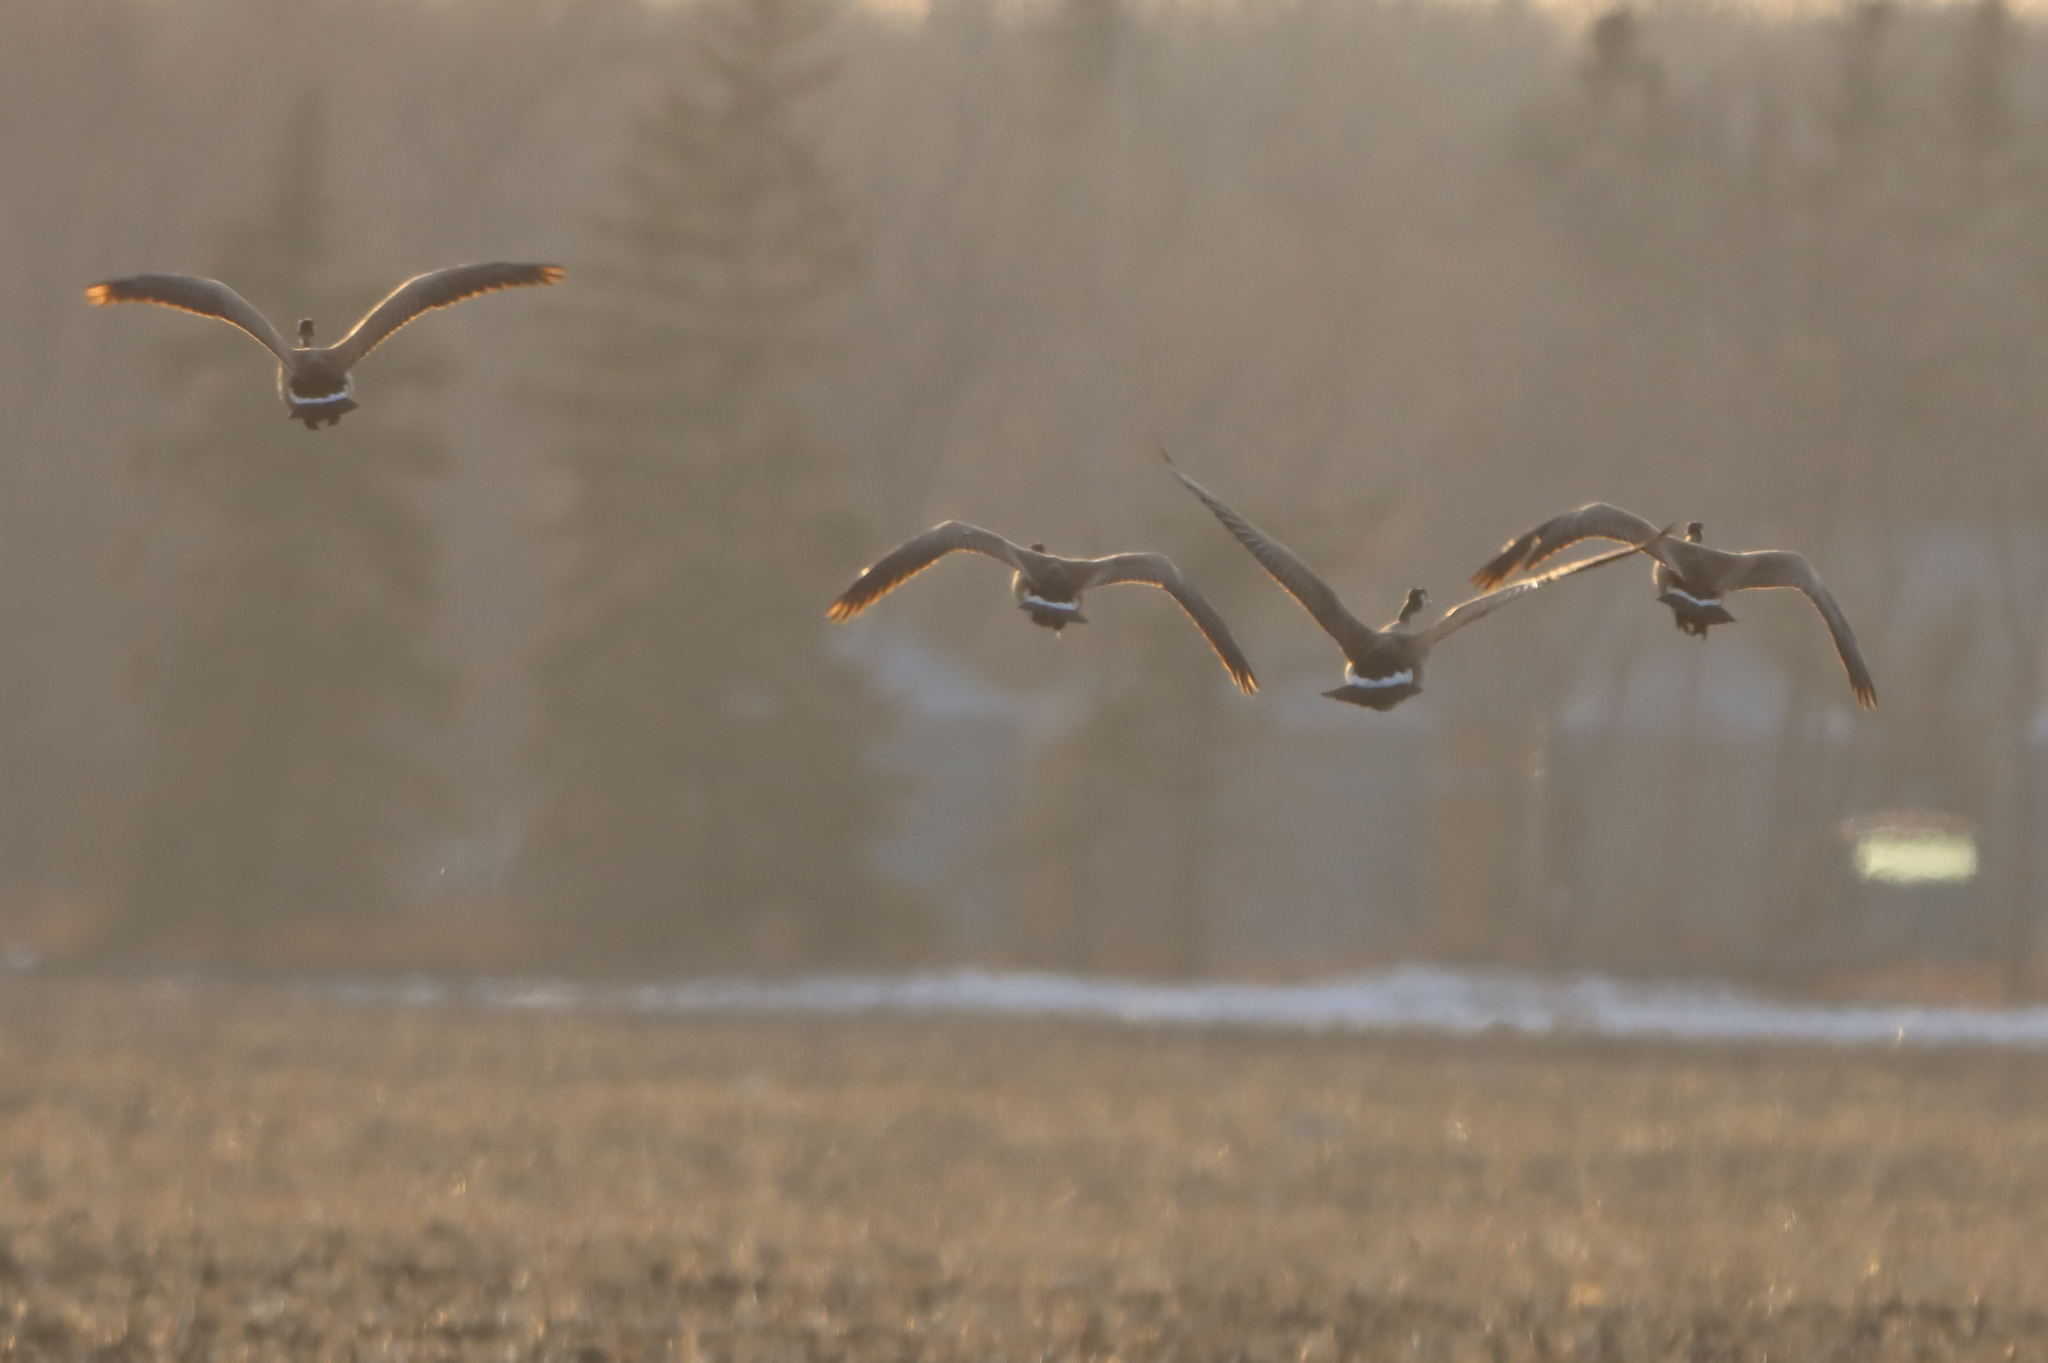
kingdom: Animalia
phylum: Chordata
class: Aves
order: Anseriformes
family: Anatidae
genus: Branta
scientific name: Branta canadensis
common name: Canada goose
